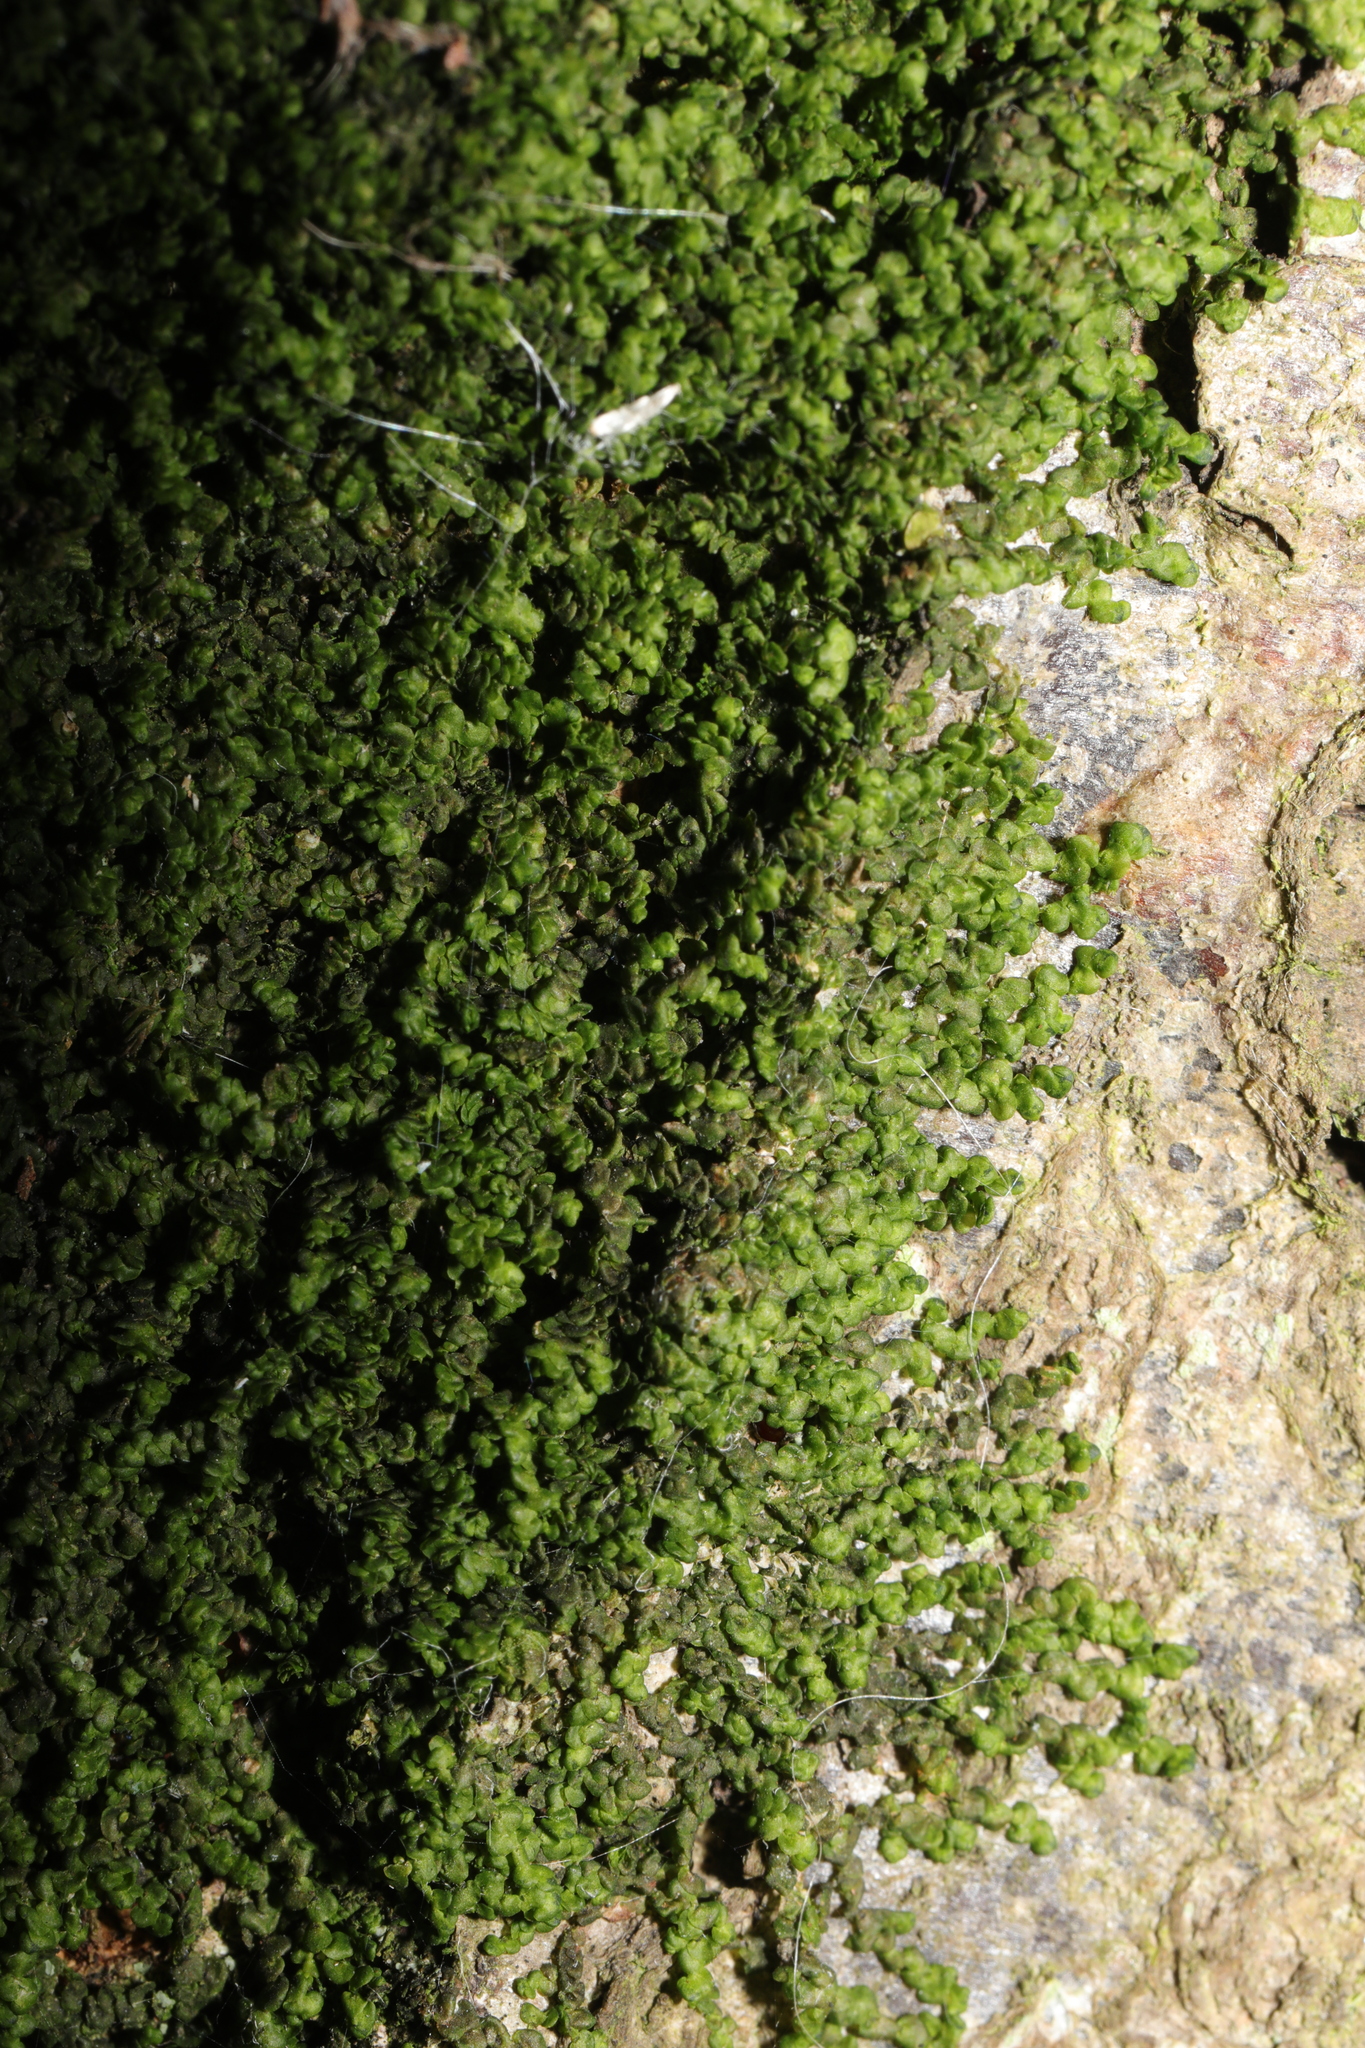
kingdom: Plantae
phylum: Marchantiophyta
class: Jungermanniopsida
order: Porellales
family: Frullaniaceae
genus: Frullania
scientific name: Frullania dilatata
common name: Dilated scalewort
